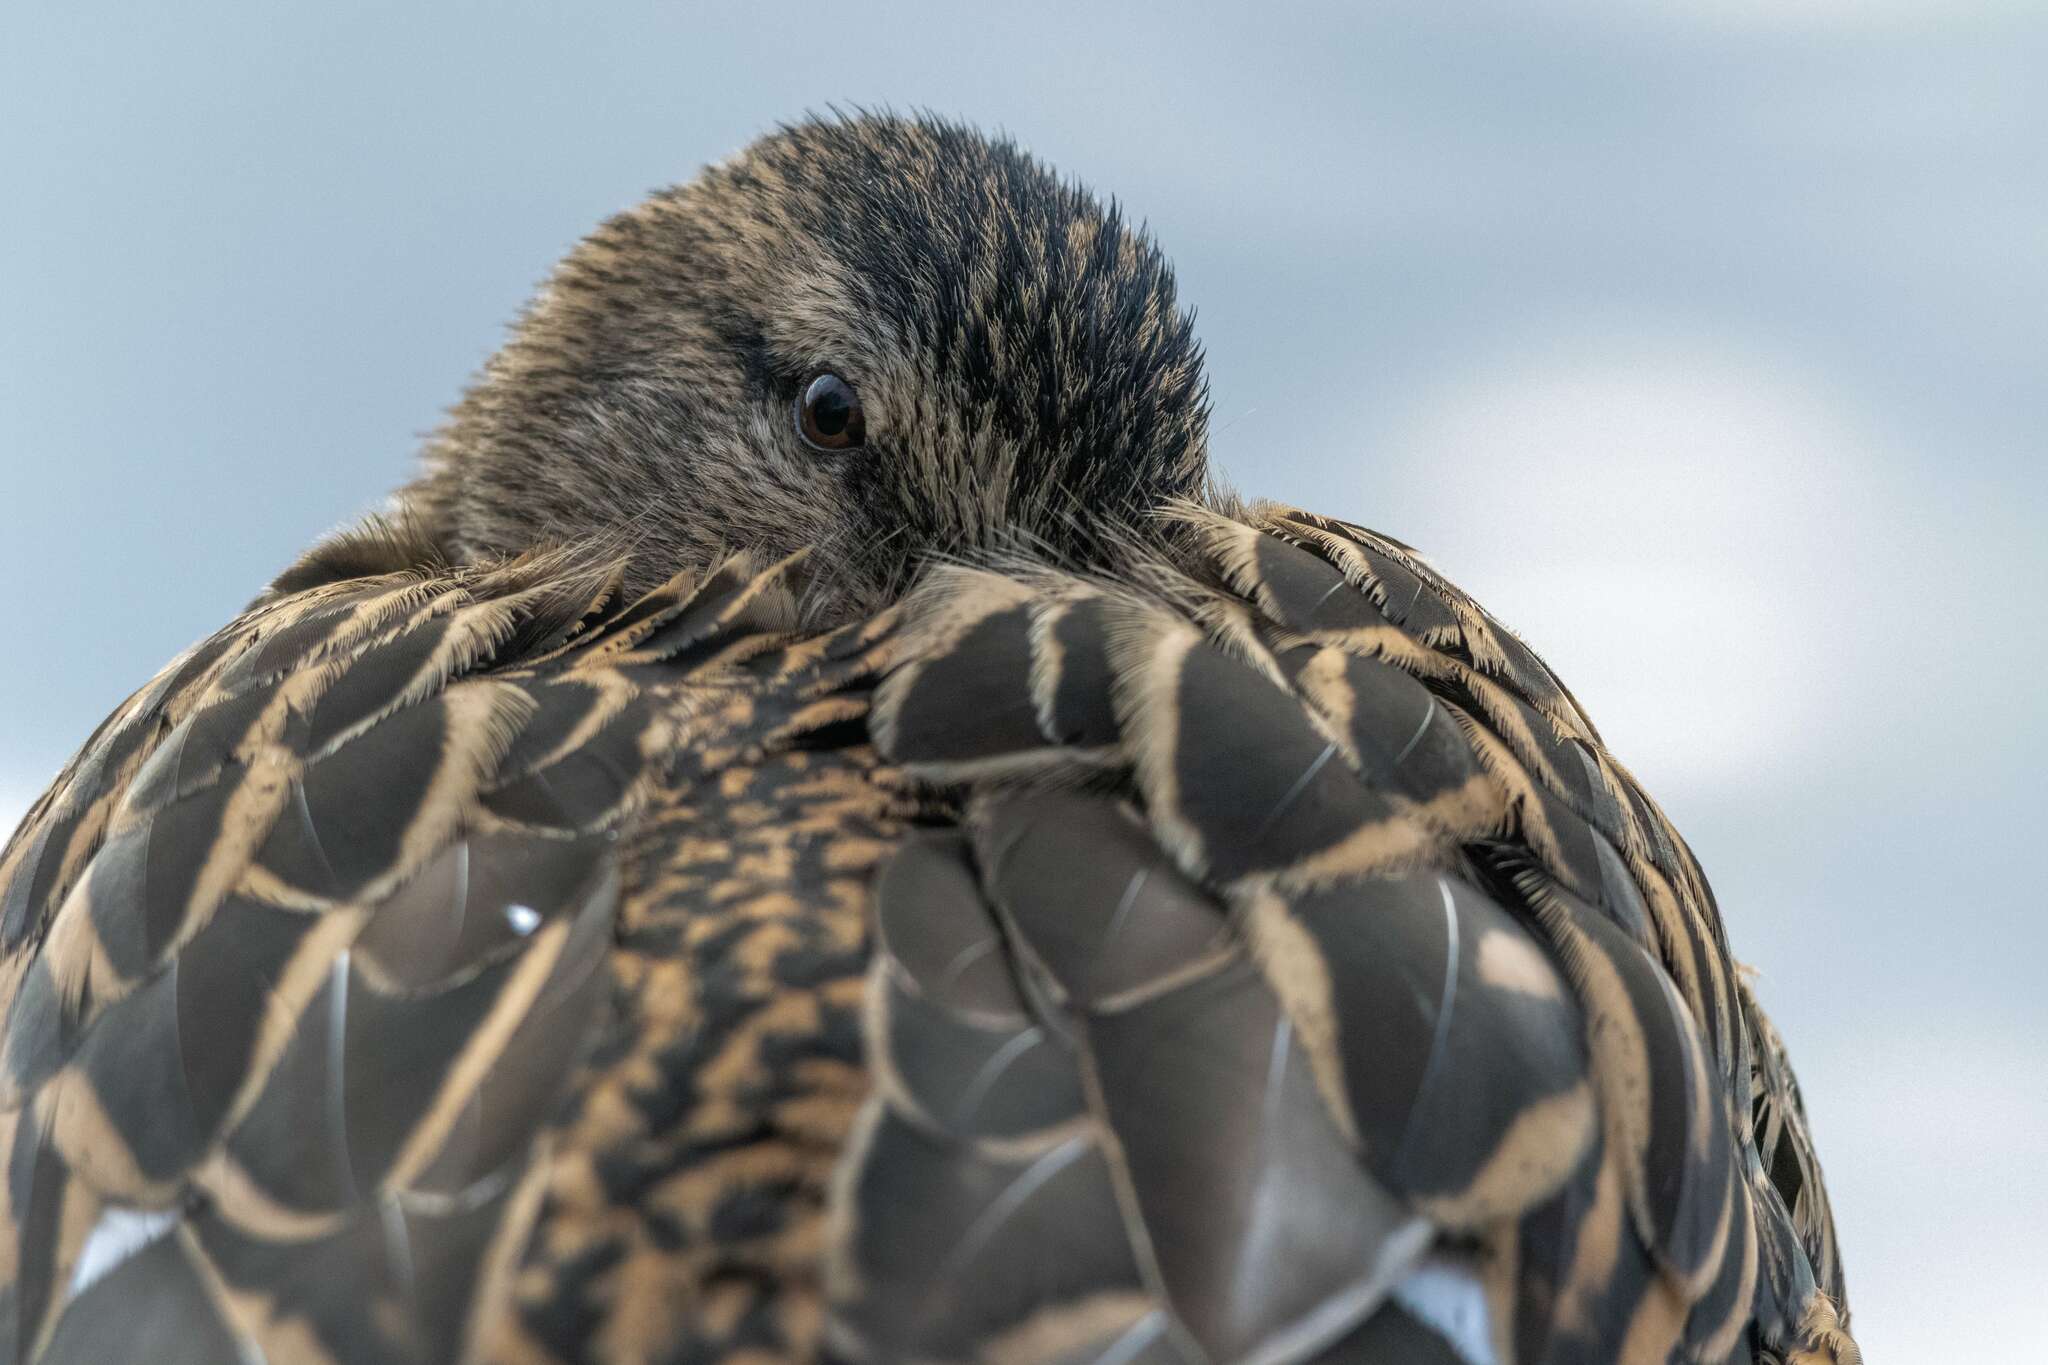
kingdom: Animalia
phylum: Chordata
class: Aves
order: Anseriformes
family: Anatidae
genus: Anas
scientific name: Anas platyrhynchos
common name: Mallard
